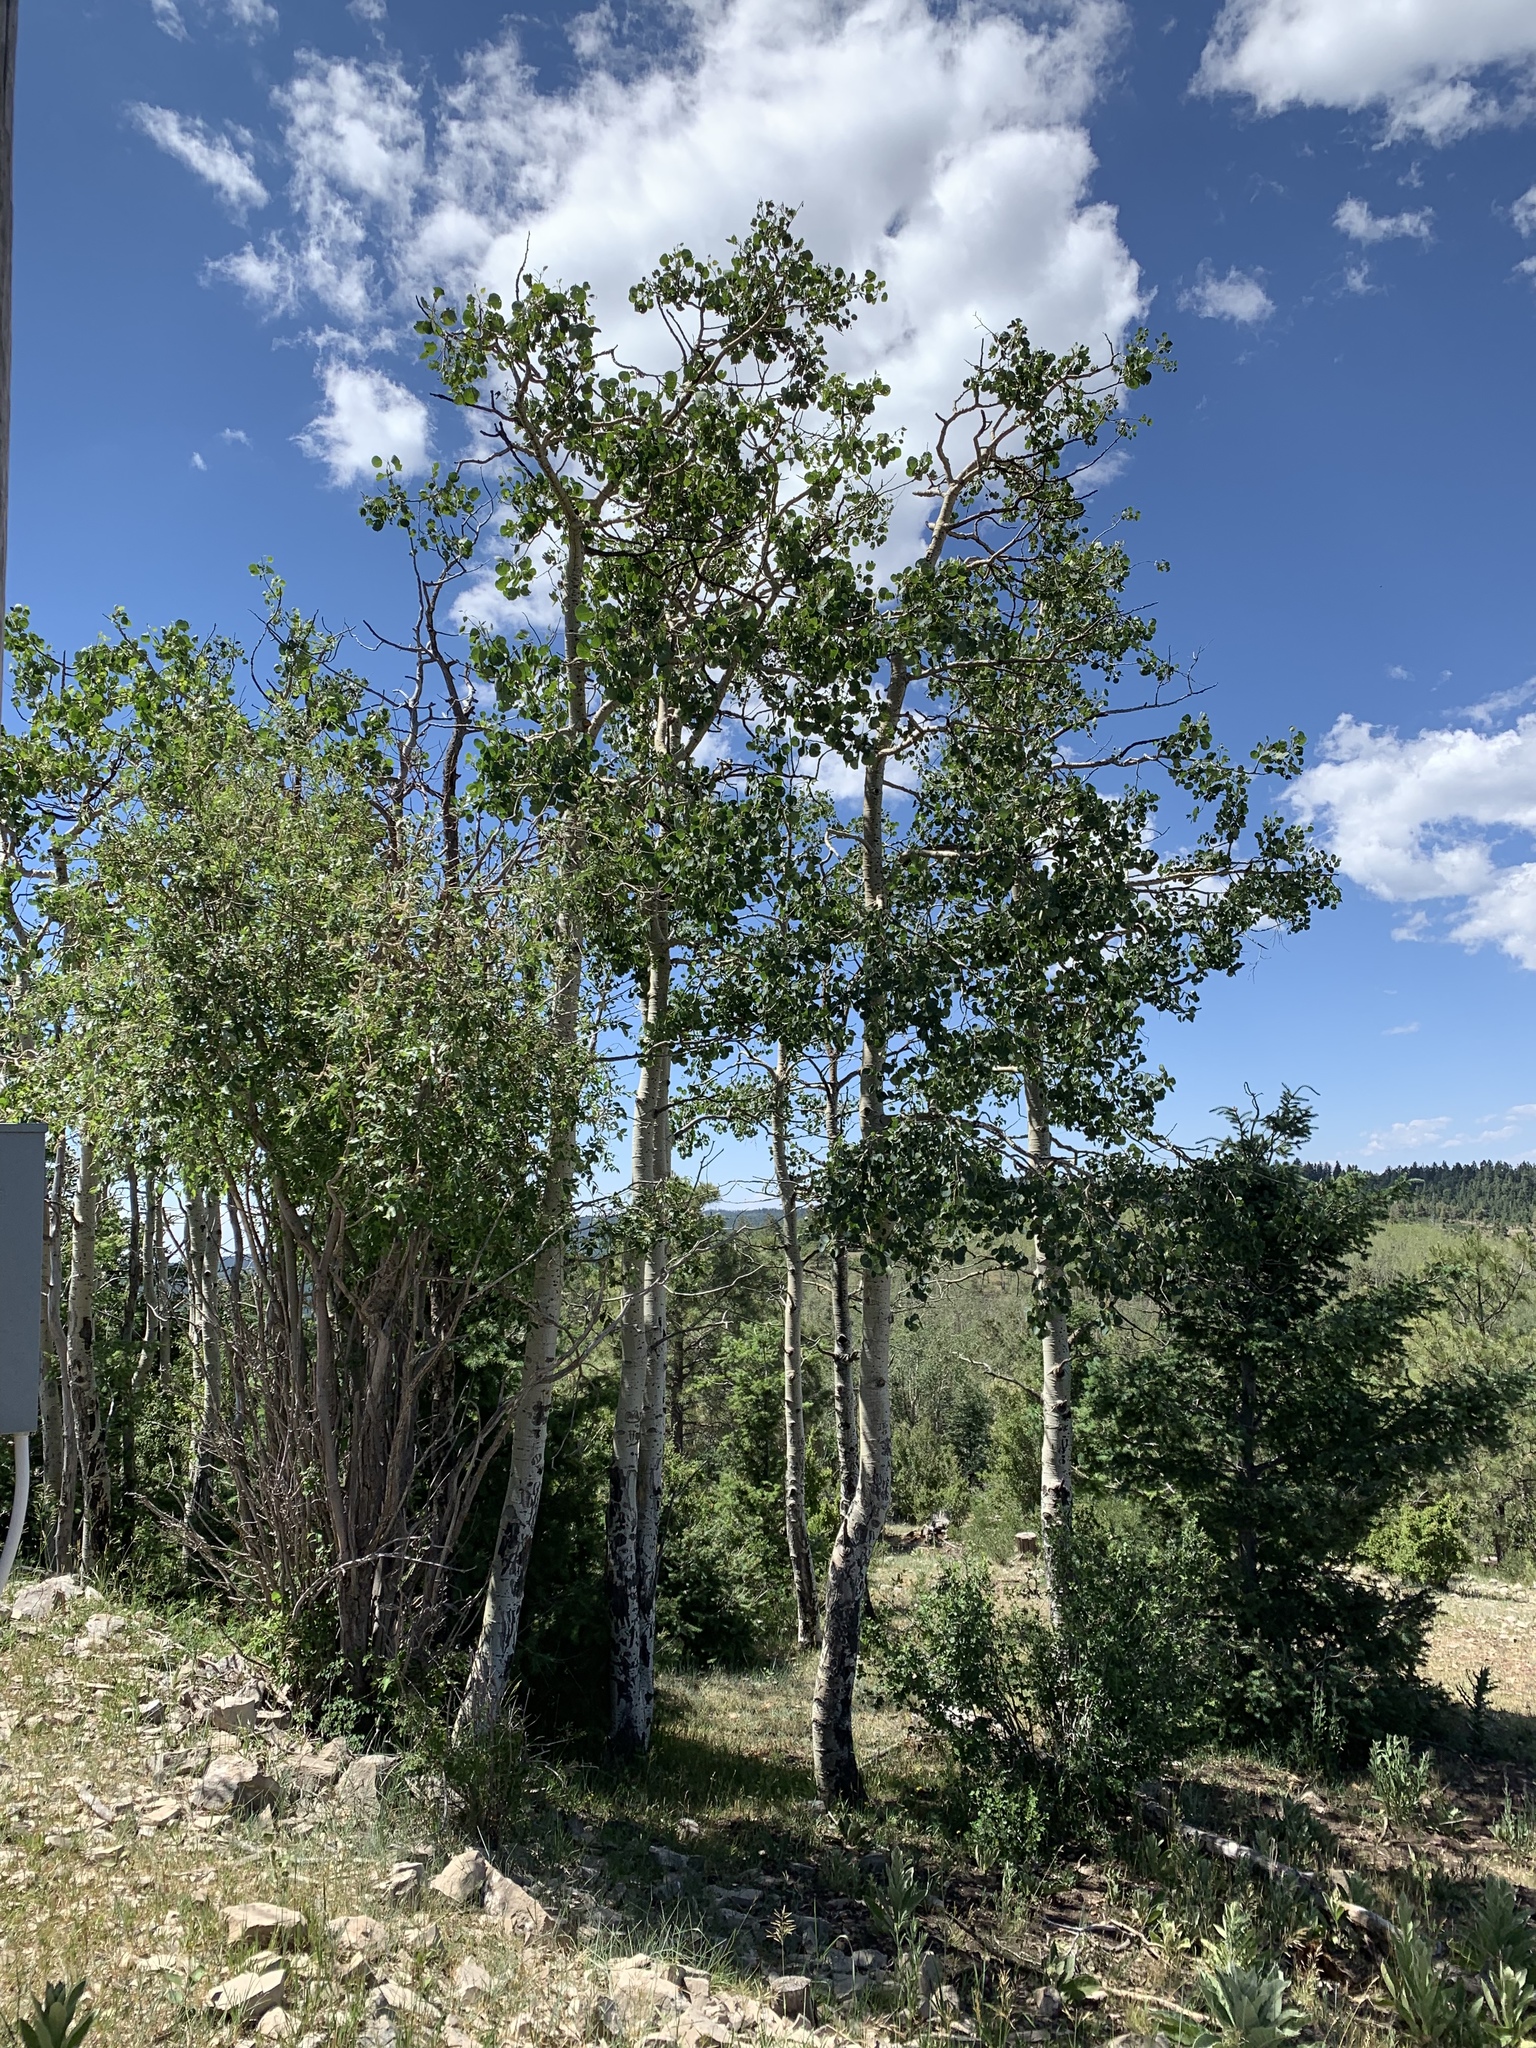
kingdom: Plantae
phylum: Tracheophyta
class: Magnoliopsida
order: Malpighiales
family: Salicaceae
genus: Populus
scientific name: Populus tremuloides
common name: Quaking aspen
